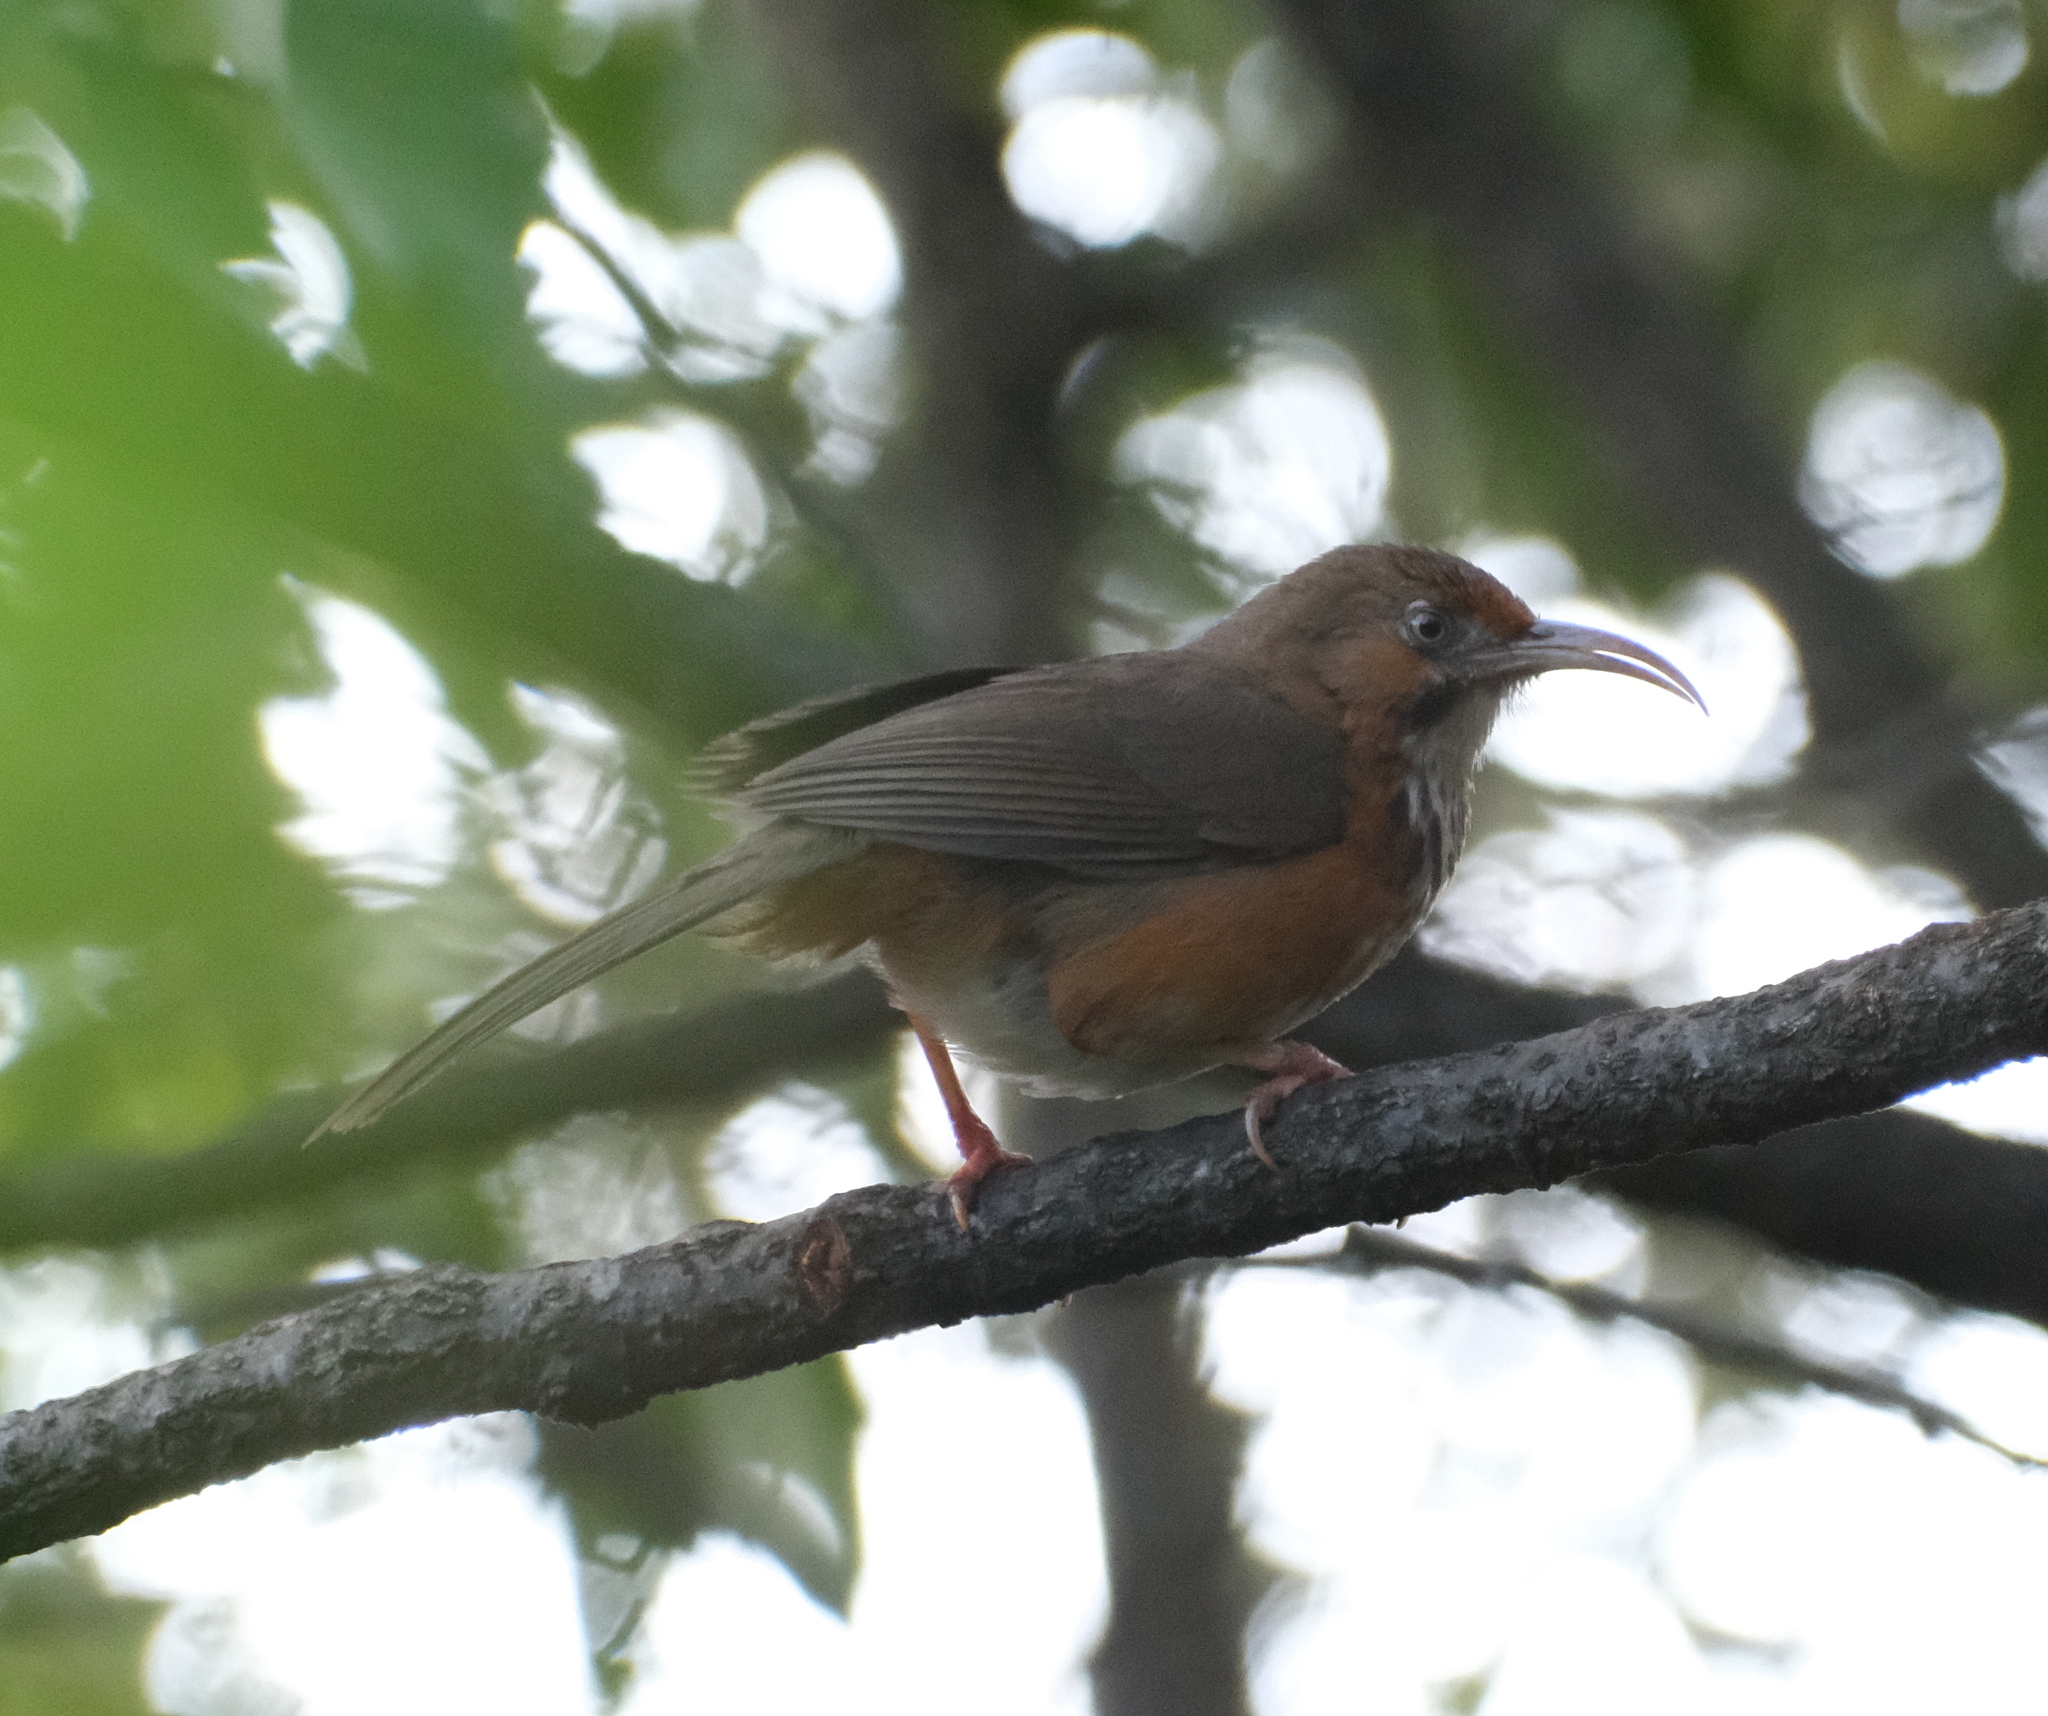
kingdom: Animalia
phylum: Chordata
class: Aves
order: Passeriformes
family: Timaliidae
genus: Pomatorhinus
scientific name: Pomatorhinus gravivox
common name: Black-streaked scimitar babbler
